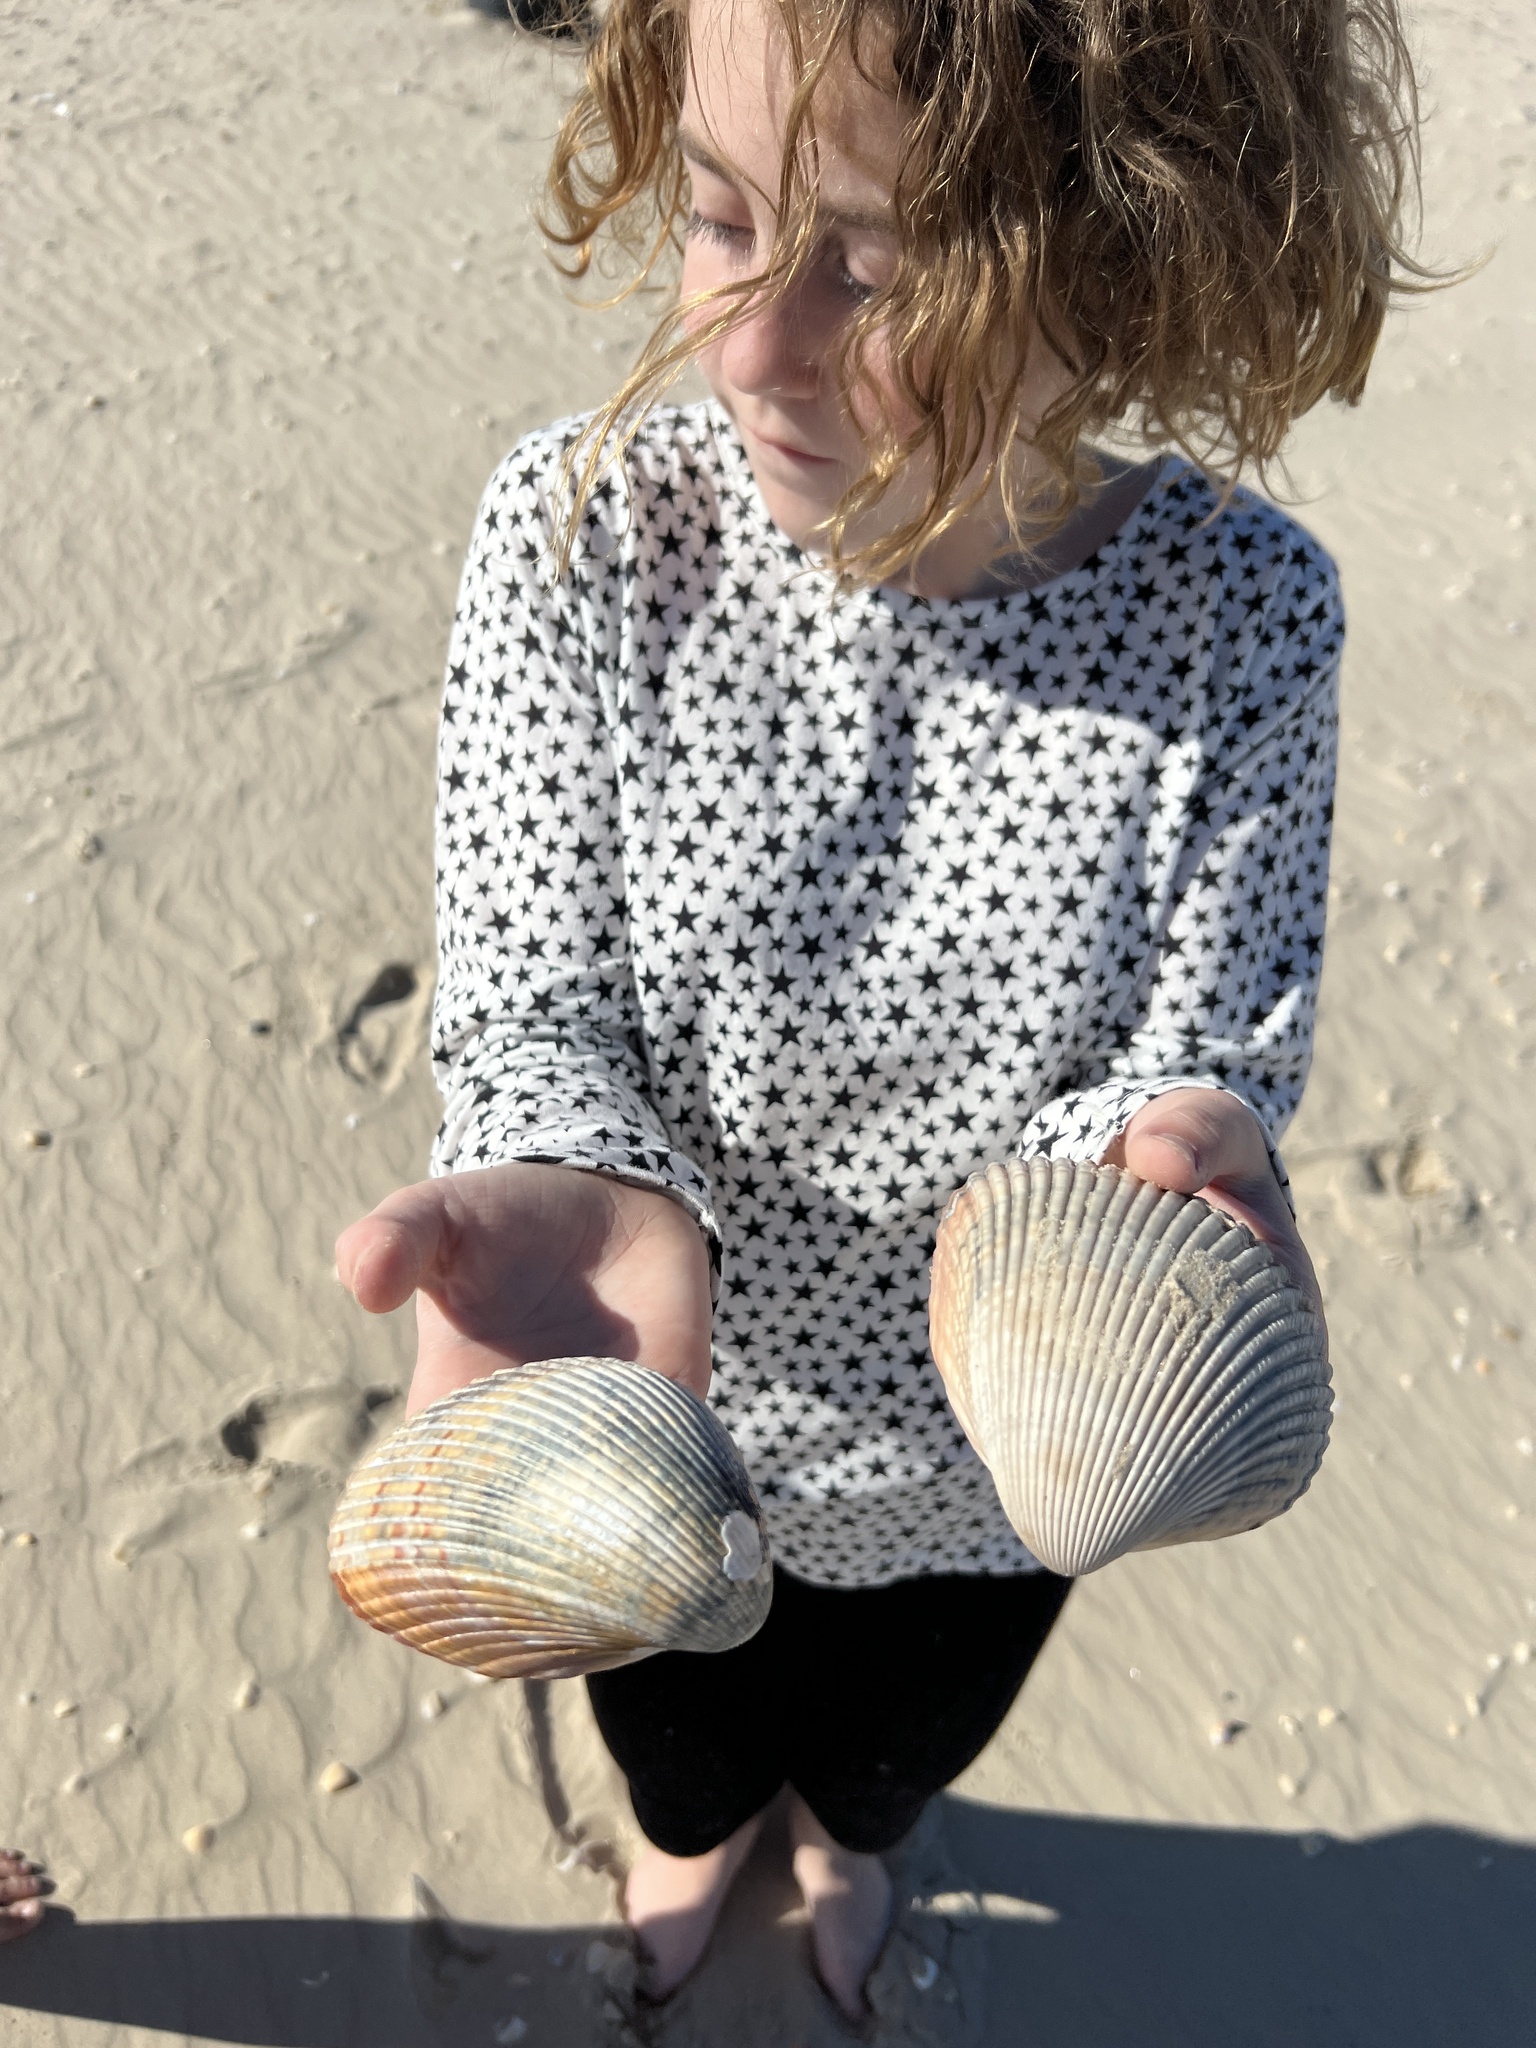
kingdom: Animalia
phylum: Mollusca
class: Bivalvia
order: Cardiida
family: Cardiidae
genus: Dinocardium
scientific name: Dinocardium robustum
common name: Atlantic giant cockle
